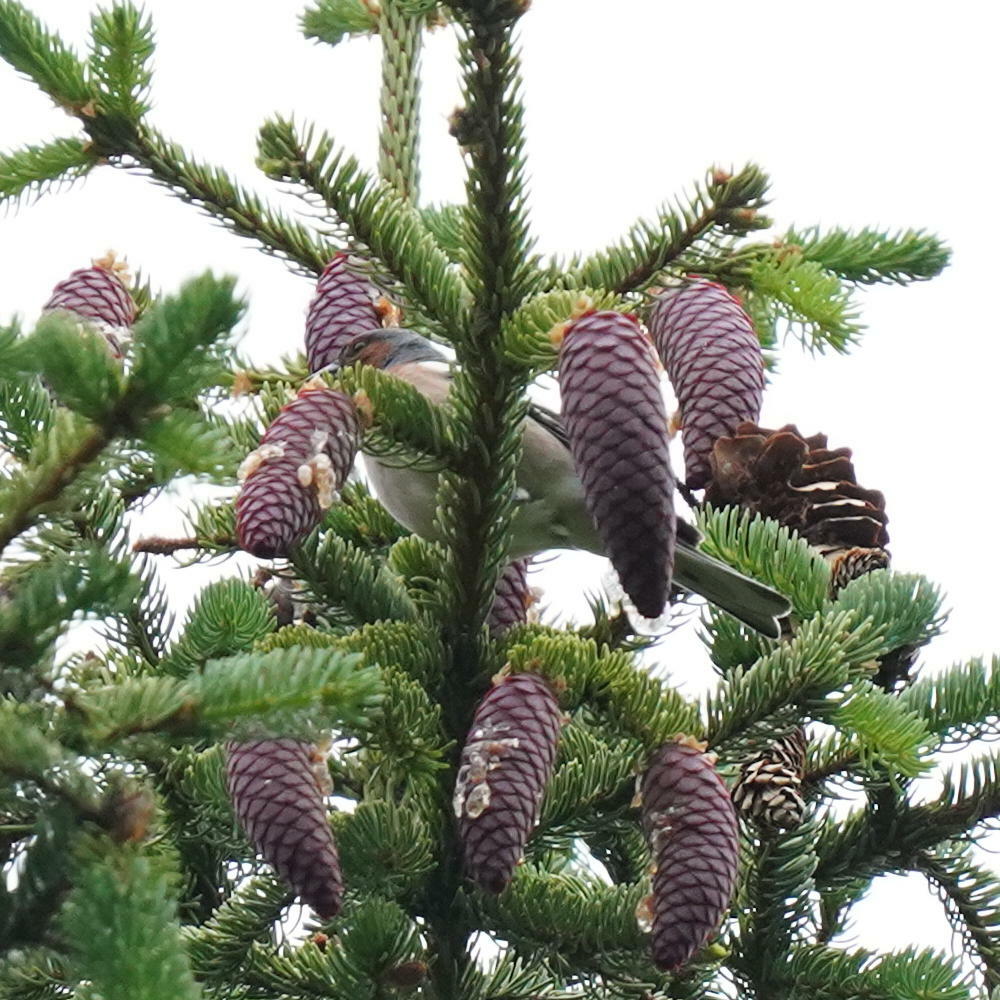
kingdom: Animalia
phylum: Chordata
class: Aves
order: Passeriformes
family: Fringillidae
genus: Fringilla
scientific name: Fringilla coelebs
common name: Common chaffinch
